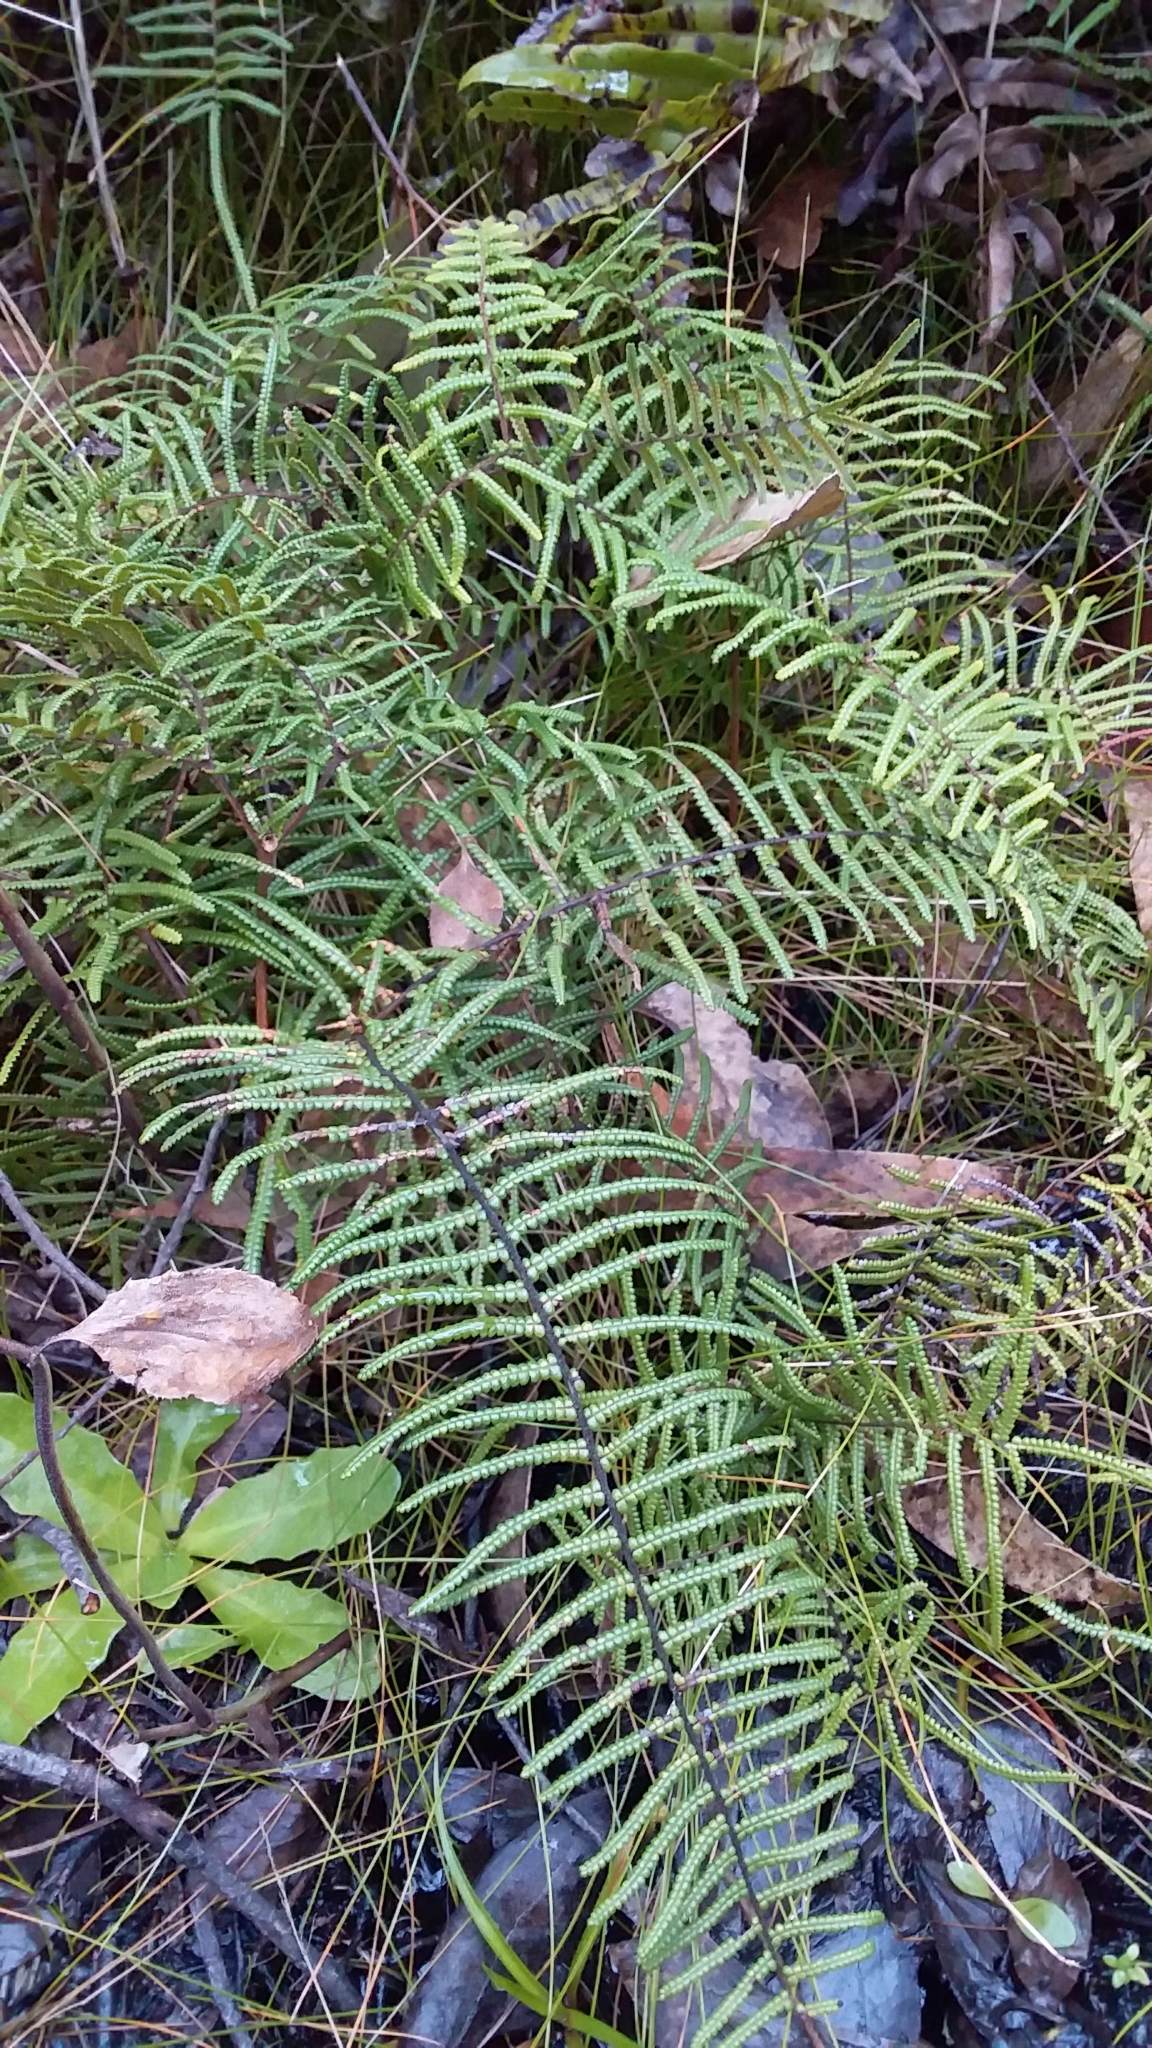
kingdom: Plantae
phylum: Tracheophyta
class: Polypodiopsida
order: Gleicheniales
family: Gleicheniaceae
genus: Gleichenia
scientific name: Gleichenia microphylla
